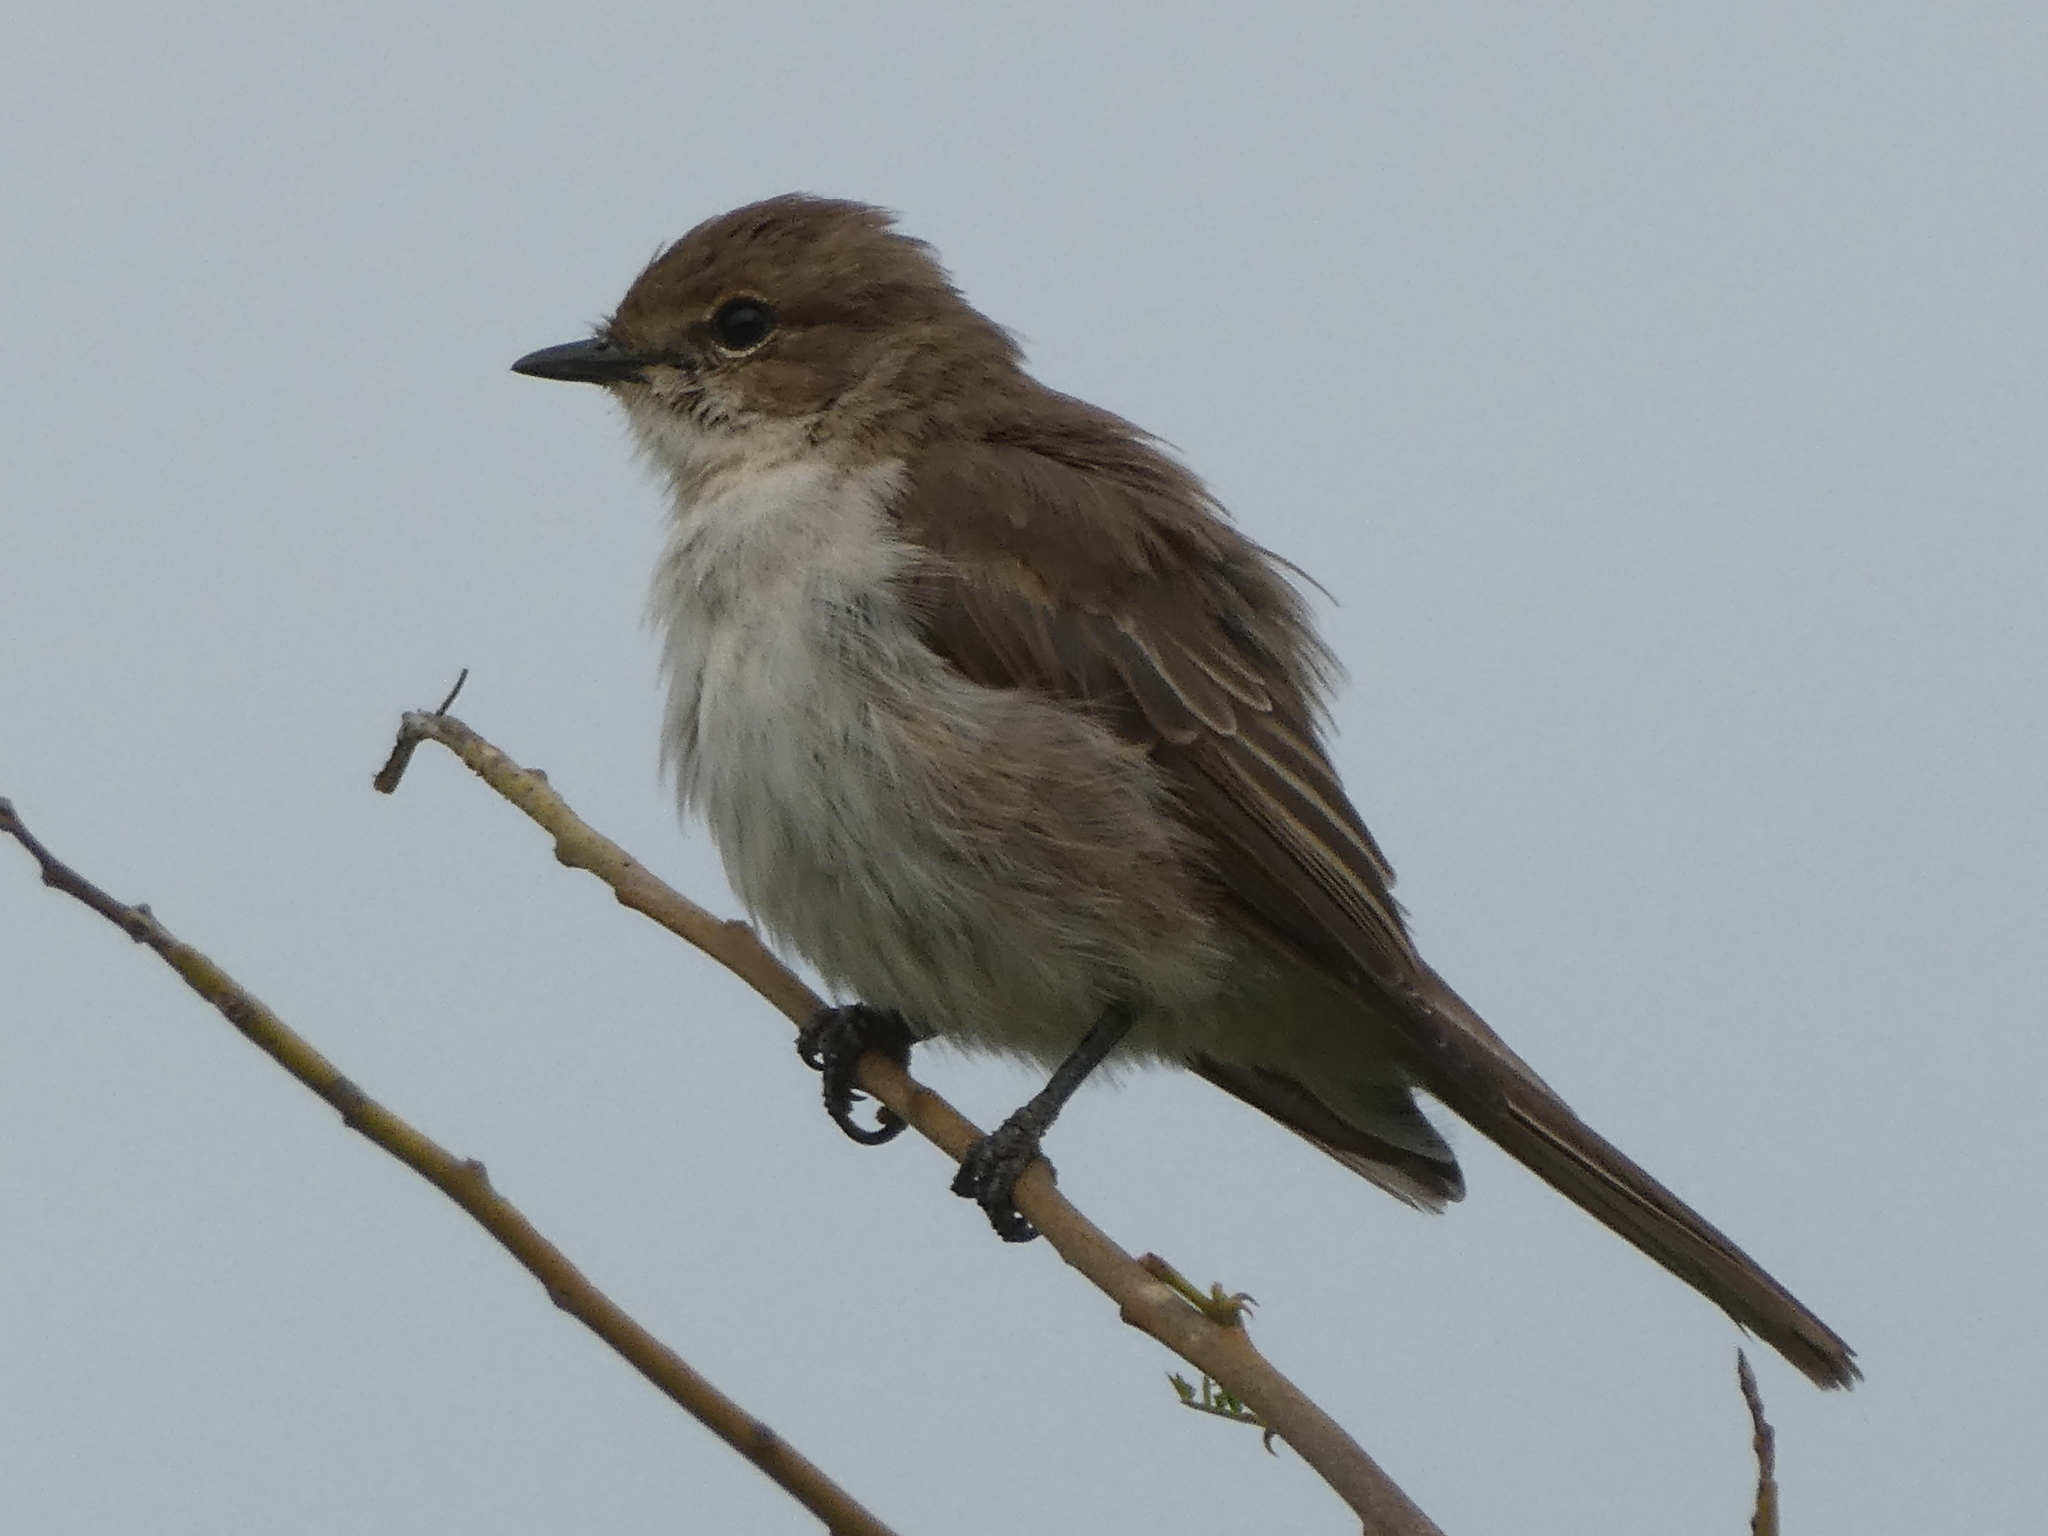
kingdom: Animalia
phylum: Chordata
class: Aves
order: Passeriformes
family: Muscicapidae
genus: Bradornis
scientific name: Bradornis mariquensis
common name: Marico flycatcher
